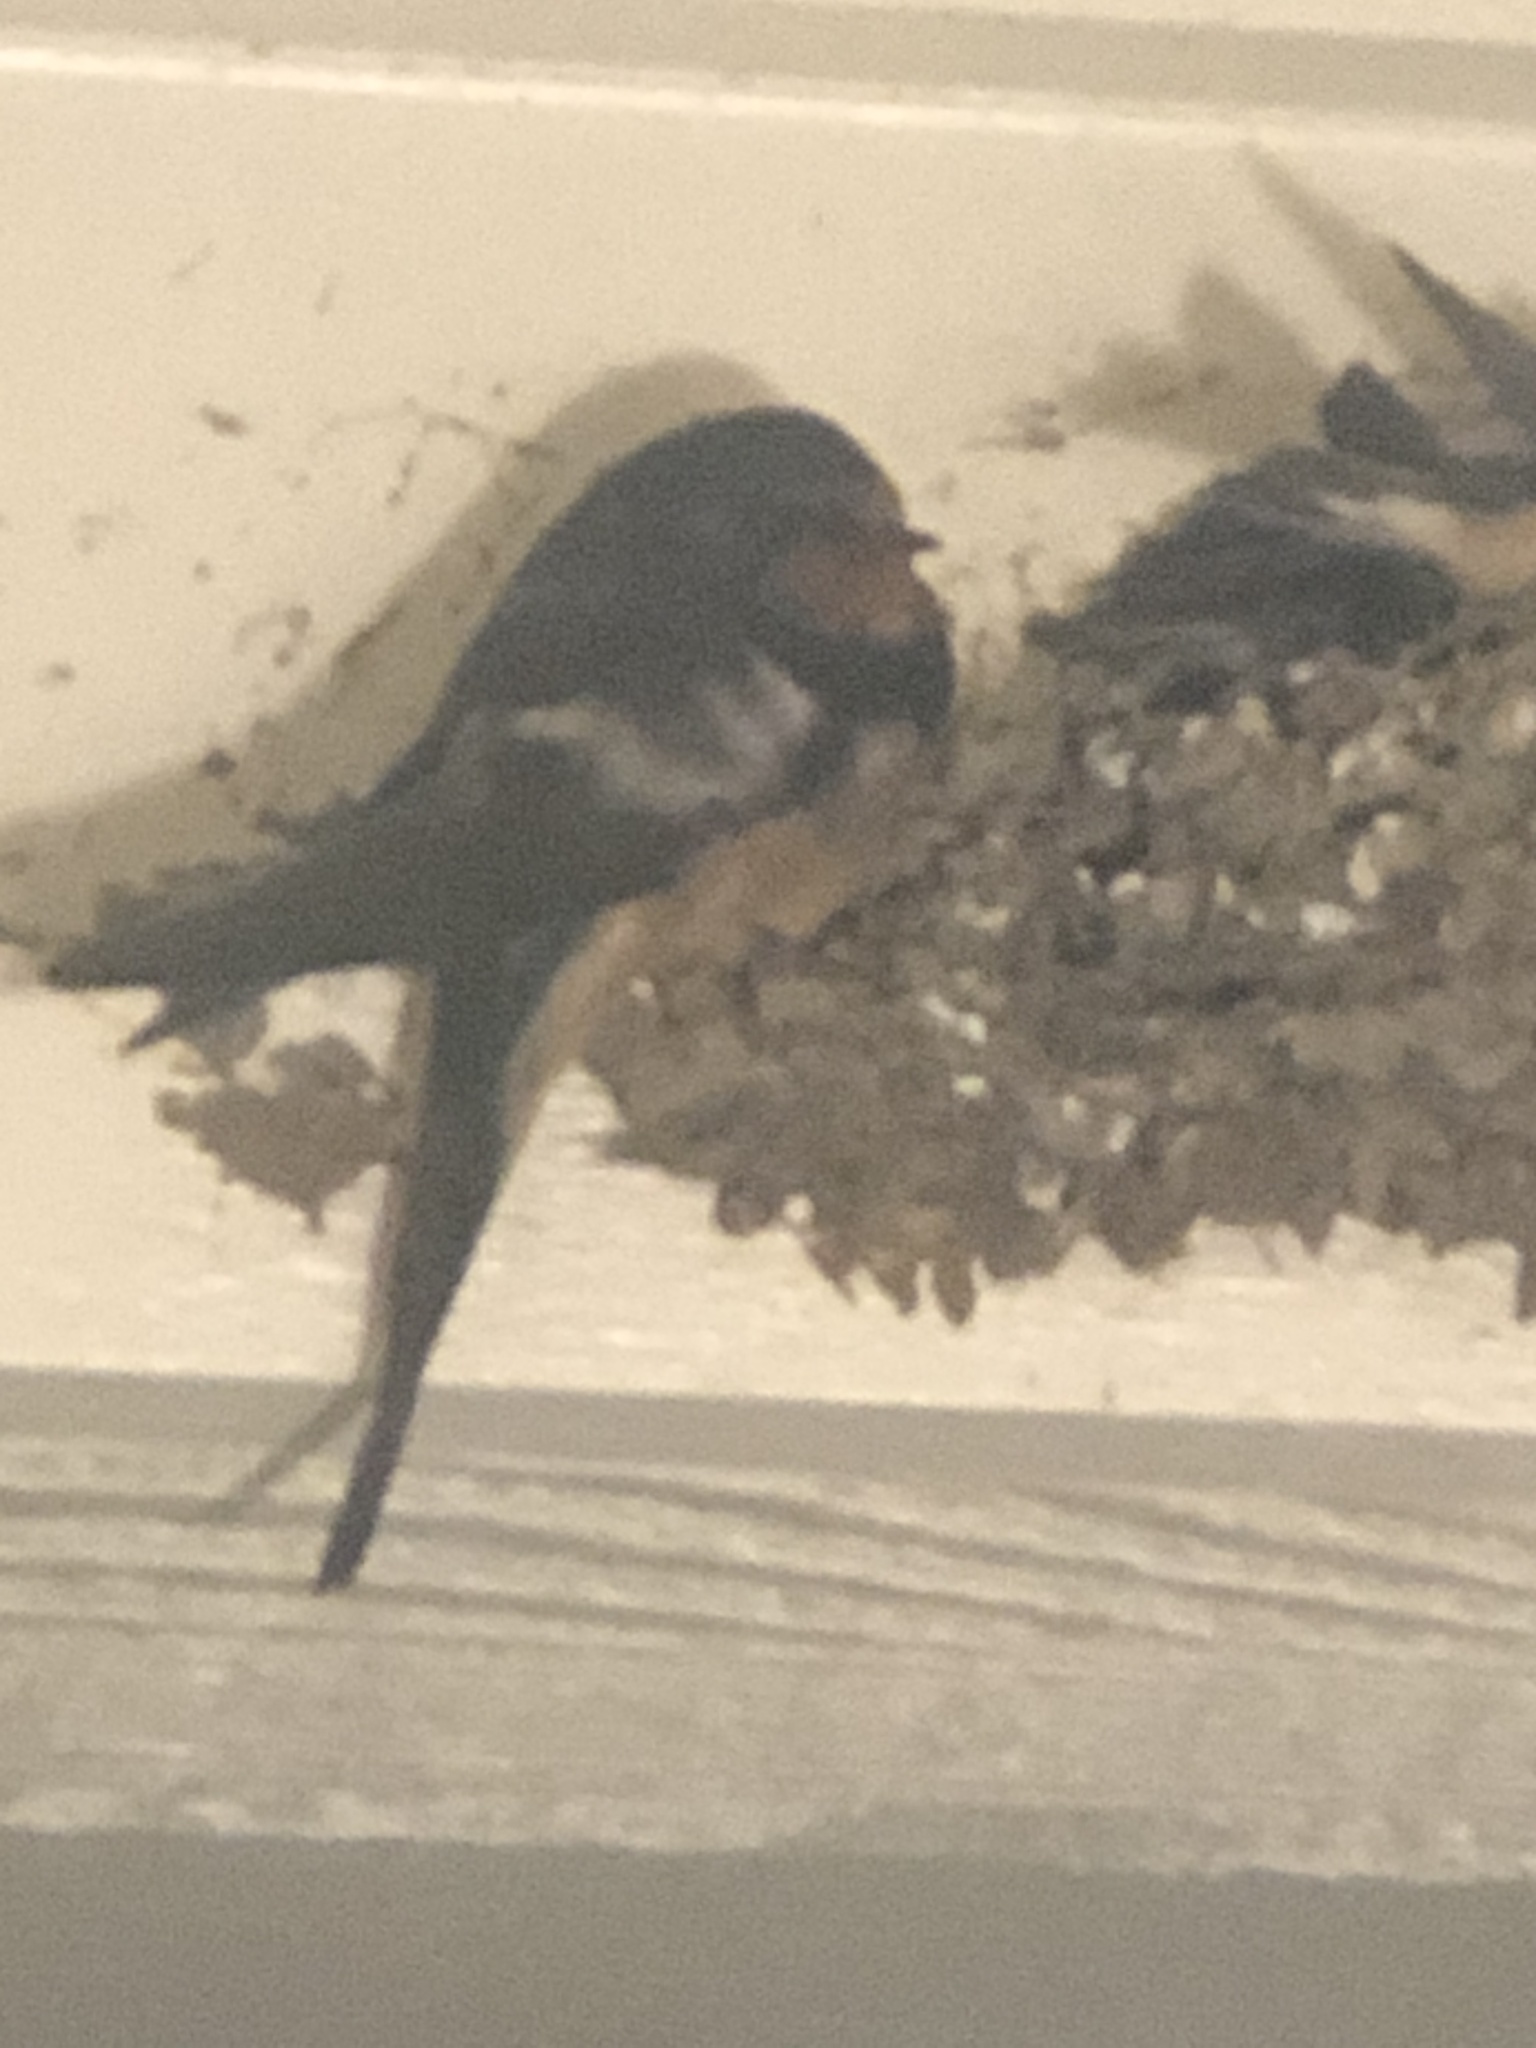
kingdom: Animalia
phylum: Chordata
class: Aves
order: Passeriformes
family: Hirundinidae
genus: Hirundo
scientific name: Hirundo rustica
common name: Barn swallow
